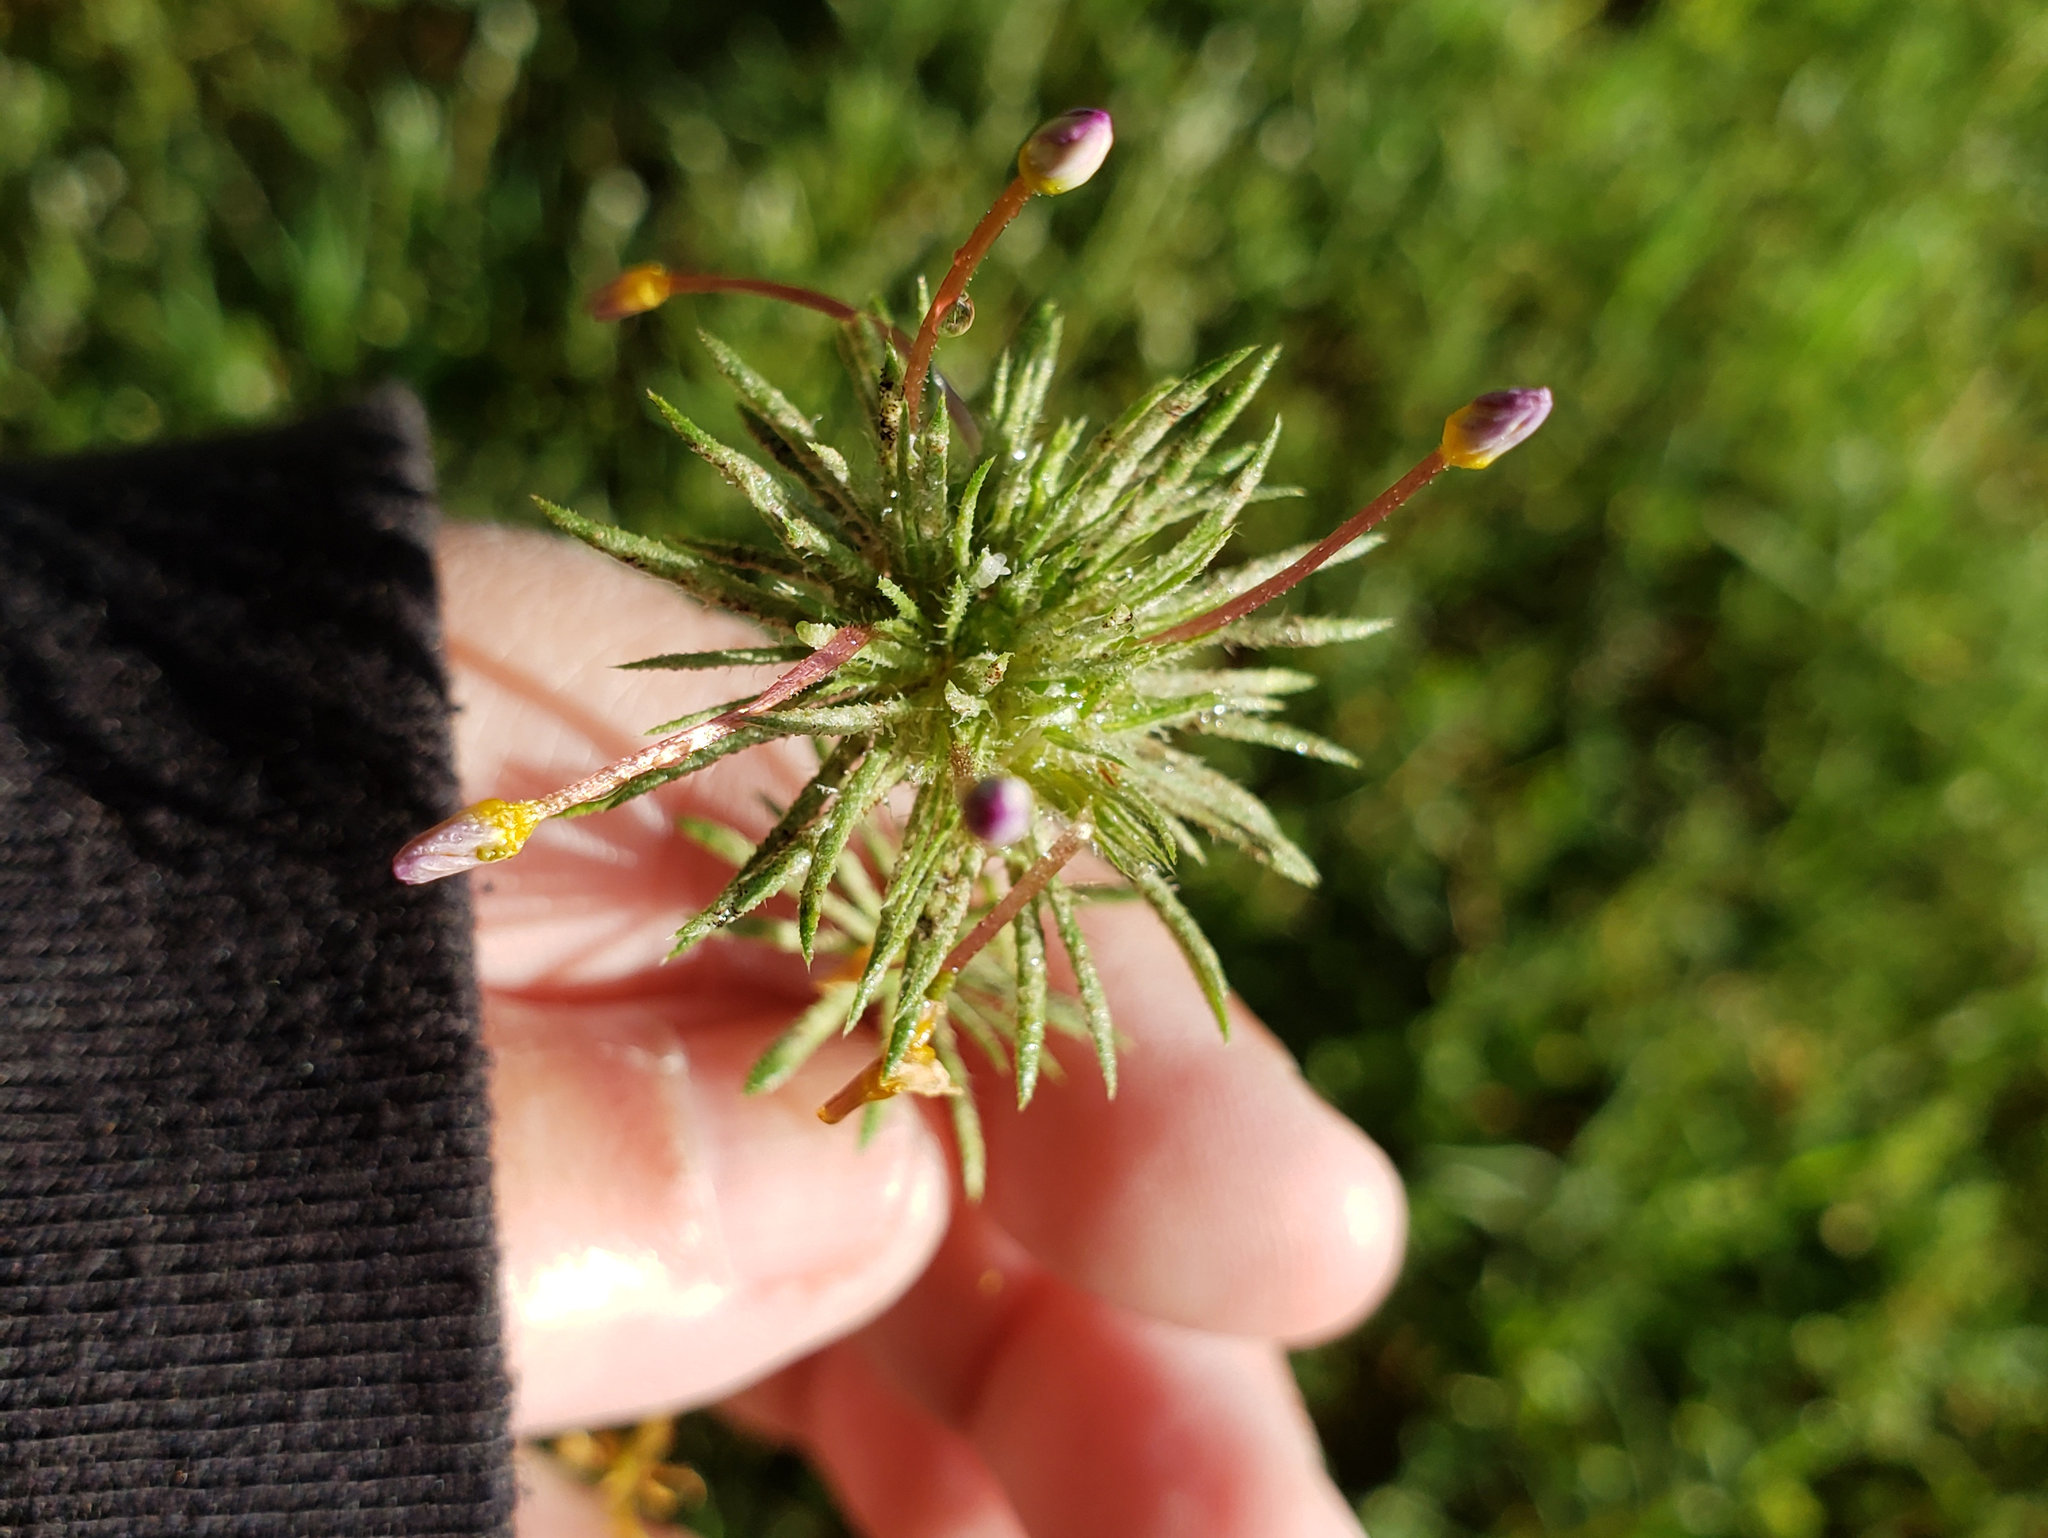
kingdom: Plantae
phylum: Tracheophyta
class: Magnoliopsida
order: Ericales
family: Polemoniaceae
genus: Leptosiphon
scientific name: Leptosiphon bicolor
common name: True babystars
